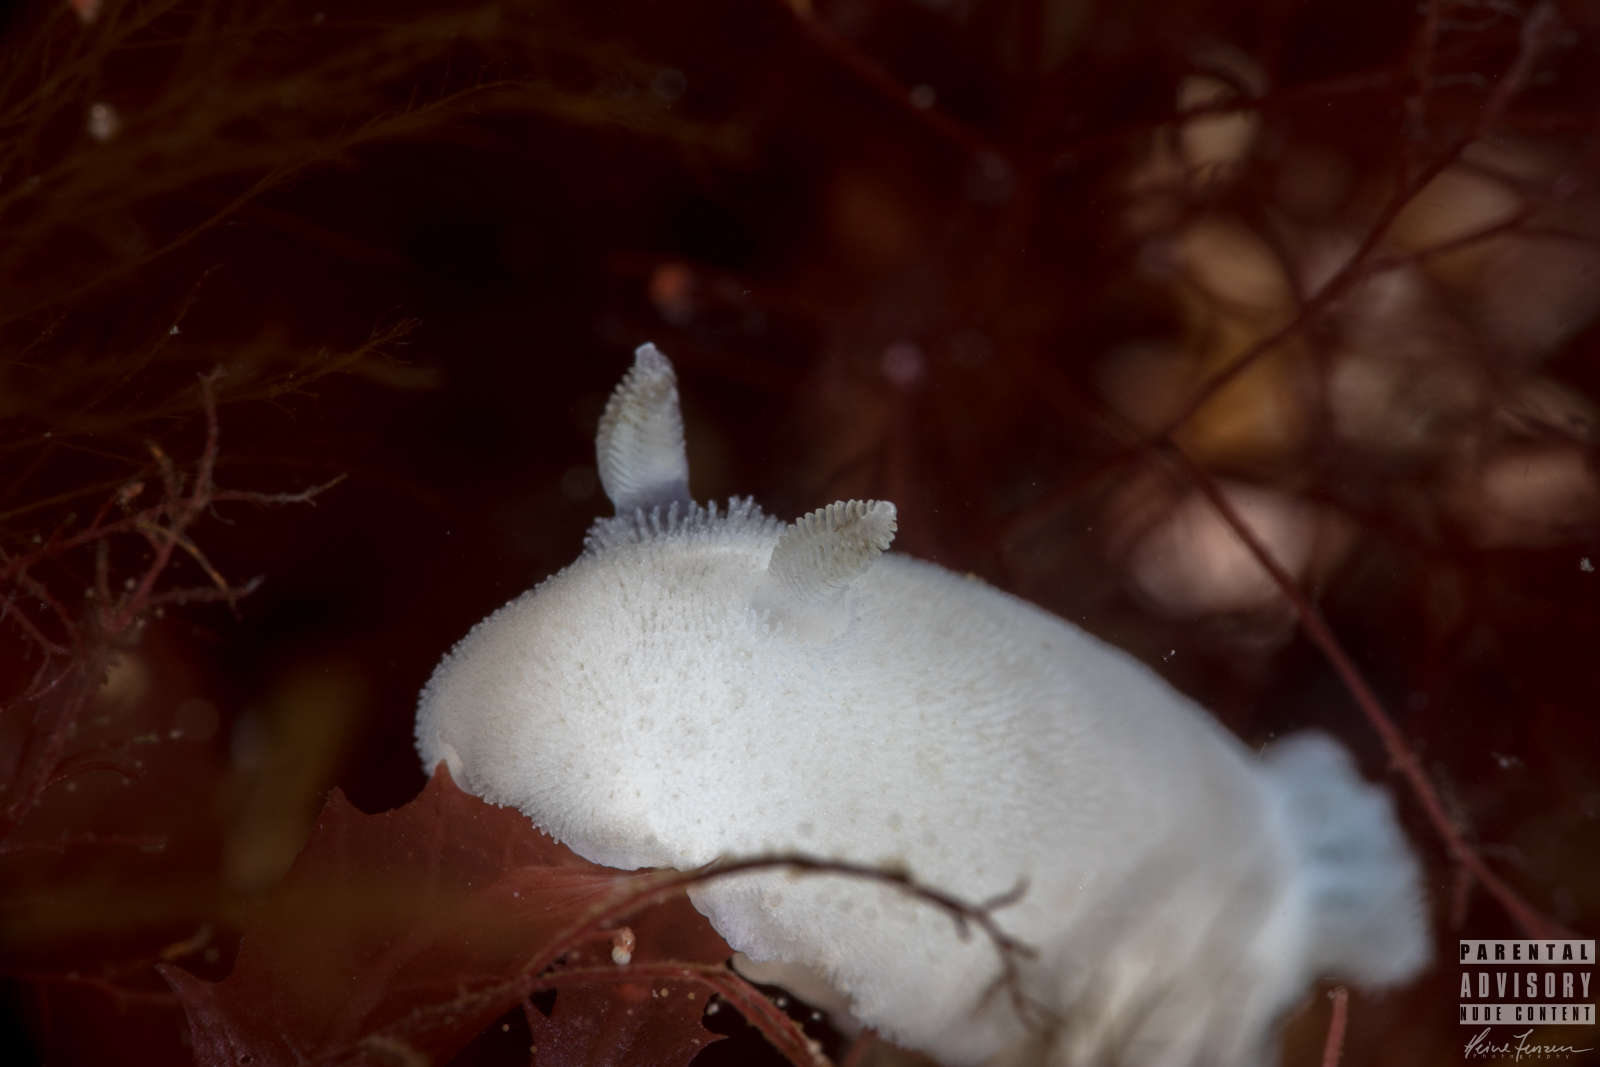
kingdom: Animalia
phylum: Mollusca
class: Gastropoda
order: Nudibranchia
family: Discodorididae
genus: Jorunna
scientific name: Jorunna tomentosa
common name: Grey sea slug
